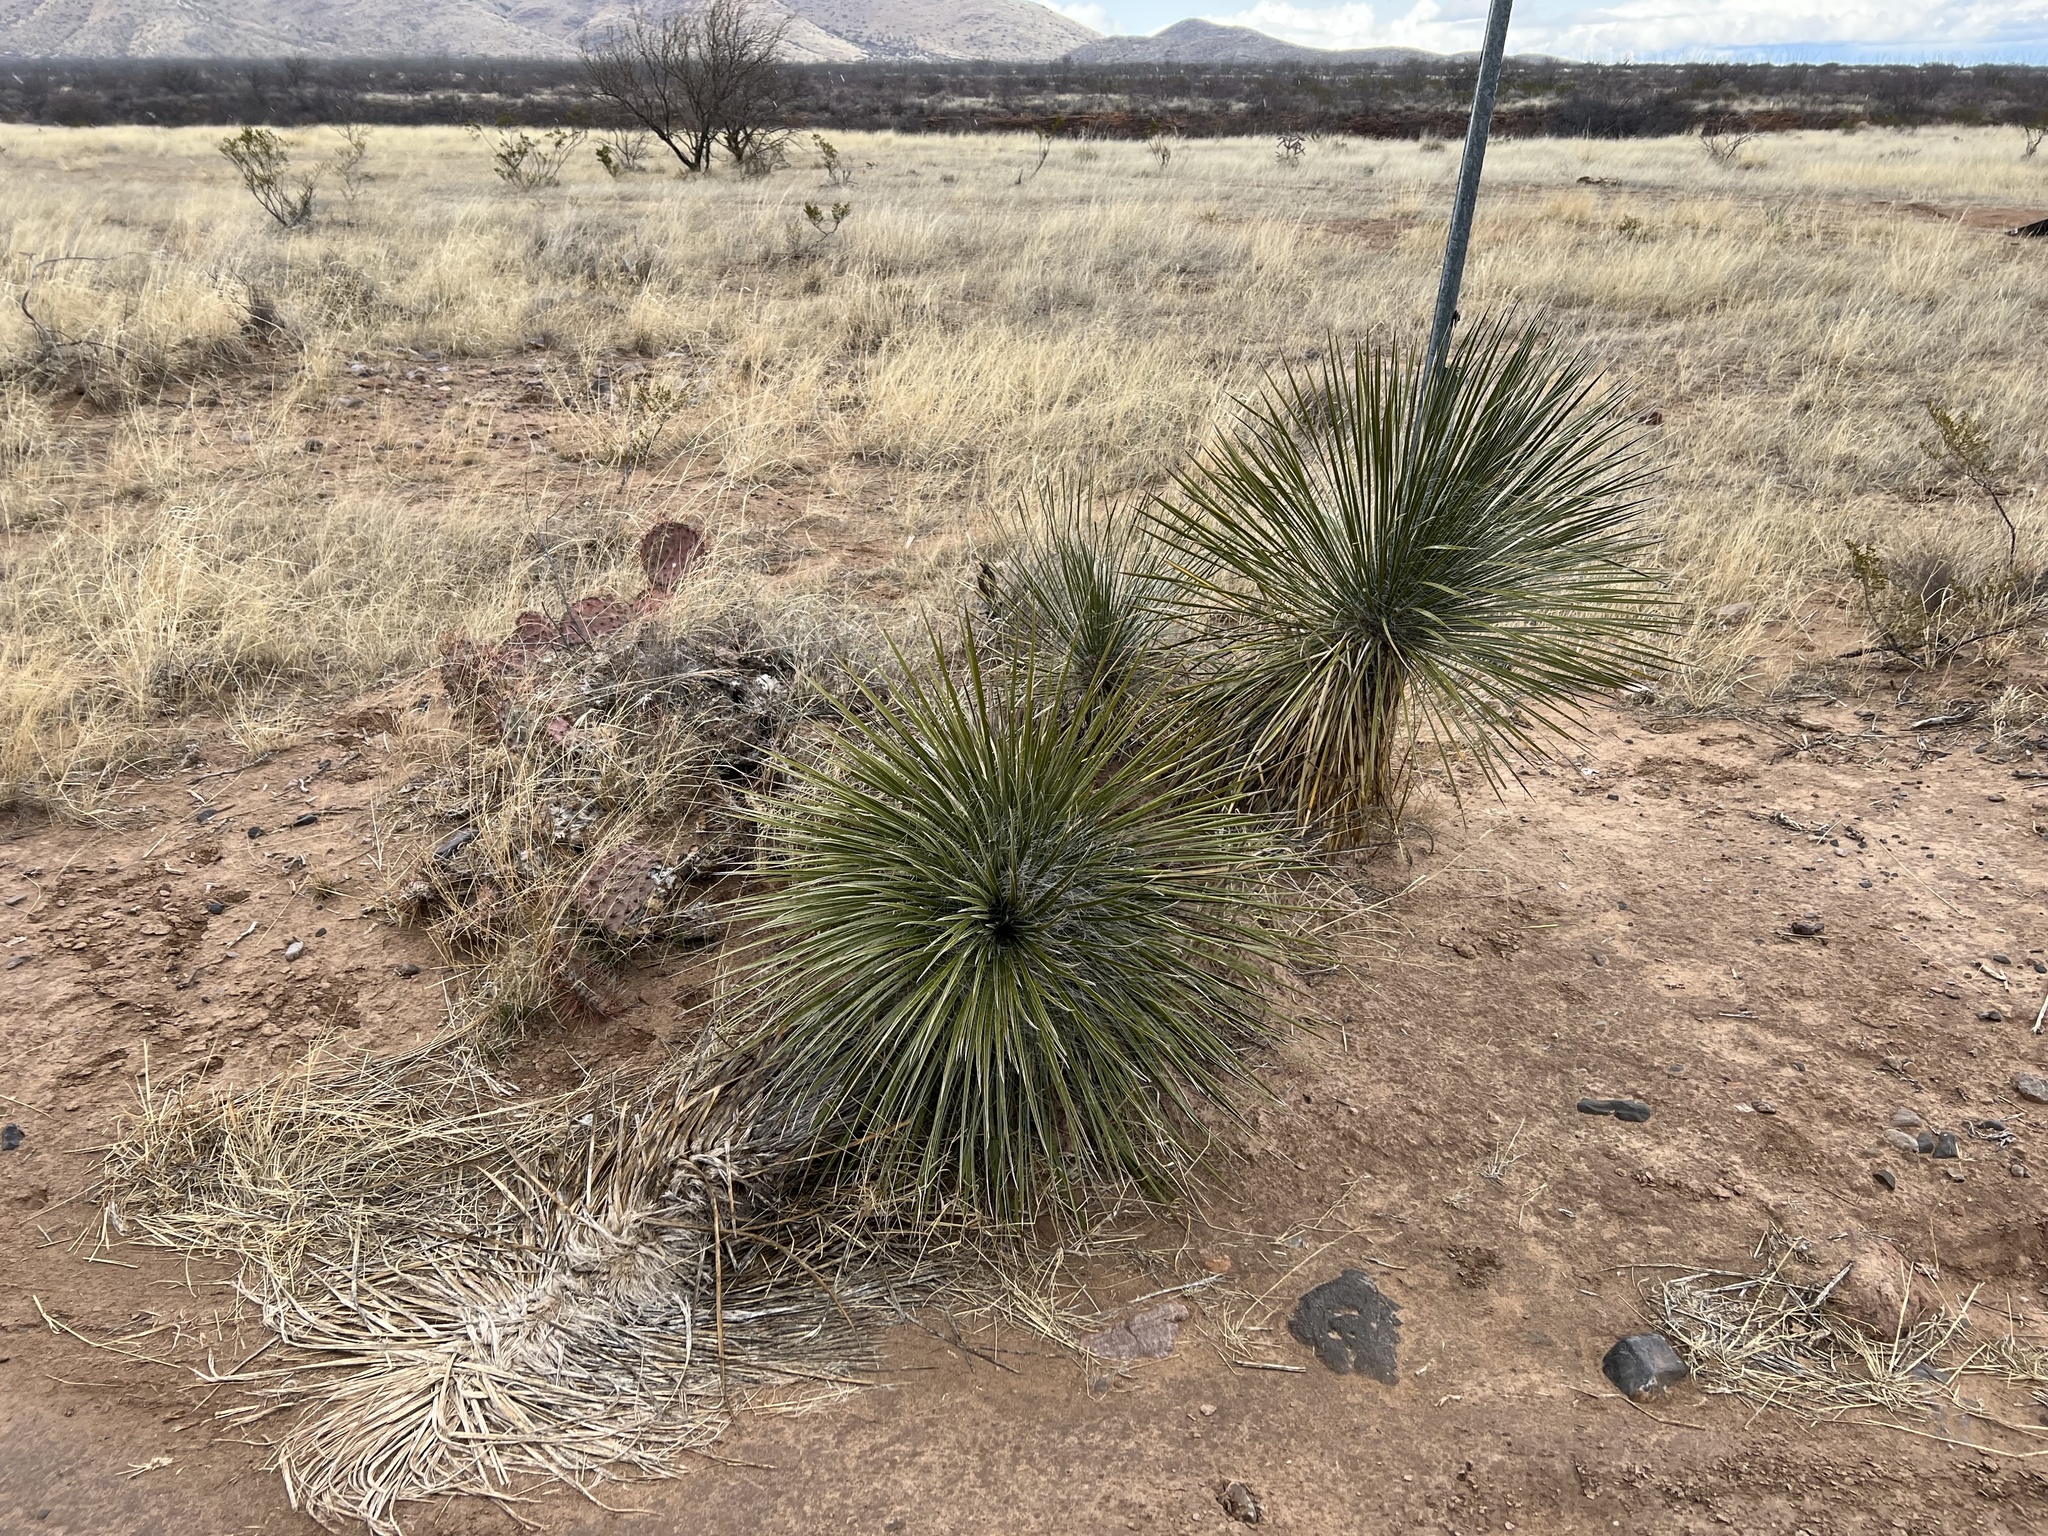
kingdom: Plantae
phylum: Tracheophyta
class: Liliopsida
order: Asparagales
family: Asparagaceae
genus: Yucca
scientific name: Yucca elata
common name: Palmella
